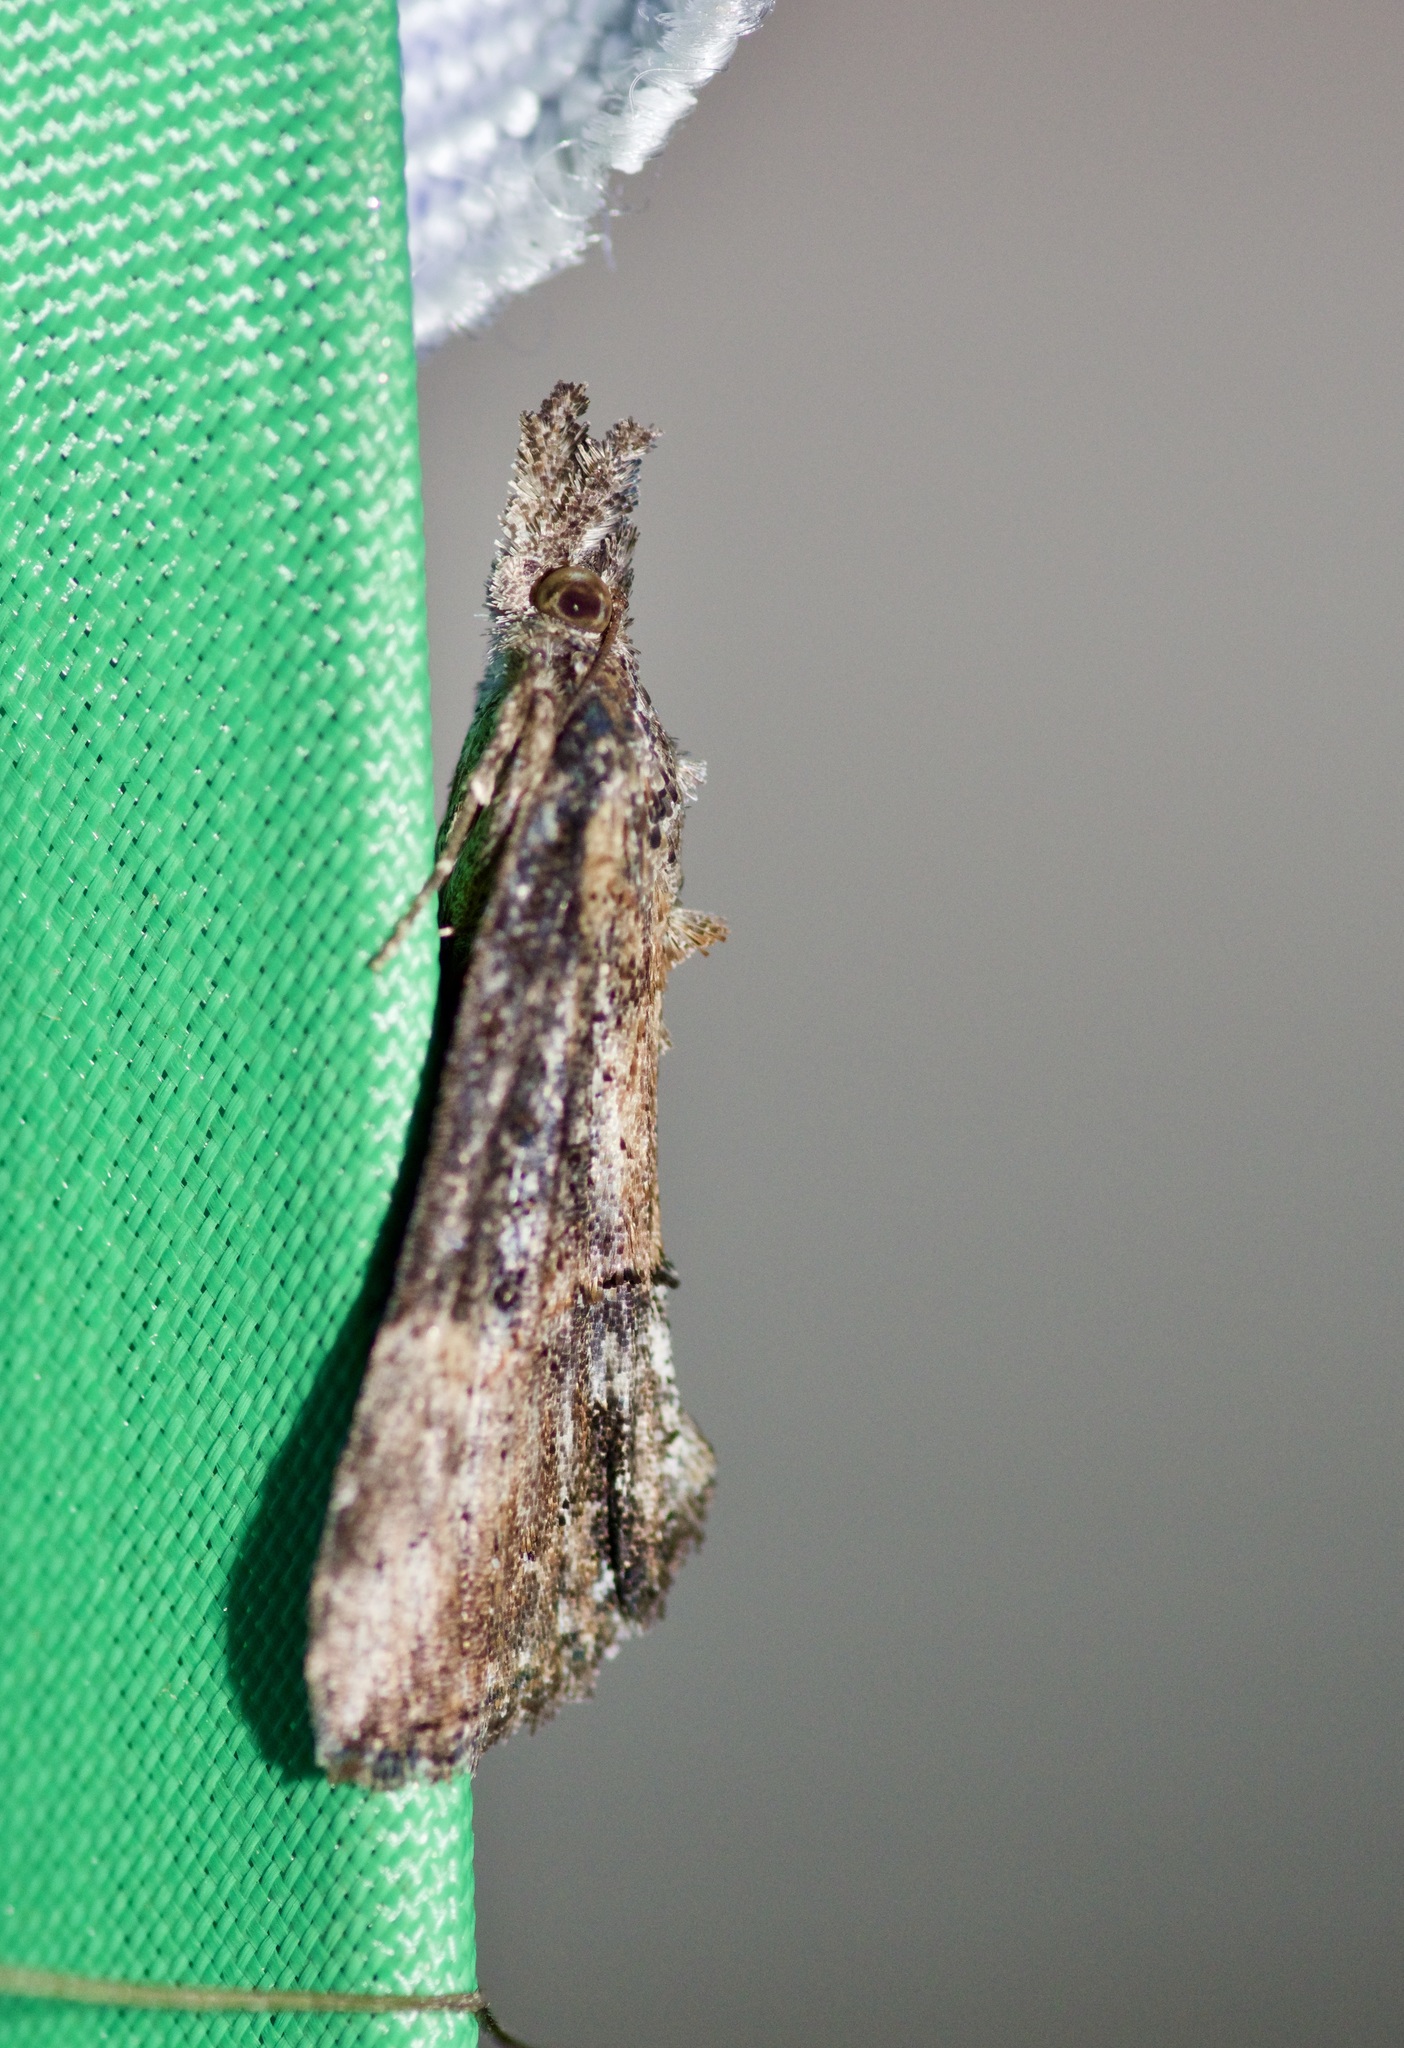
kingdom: Animalia
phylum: Arthropoda
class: Insecta
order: Lepidoptera
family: Erebidae
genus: Hypena
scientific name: Hypena scabra
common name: Green cloverworm
